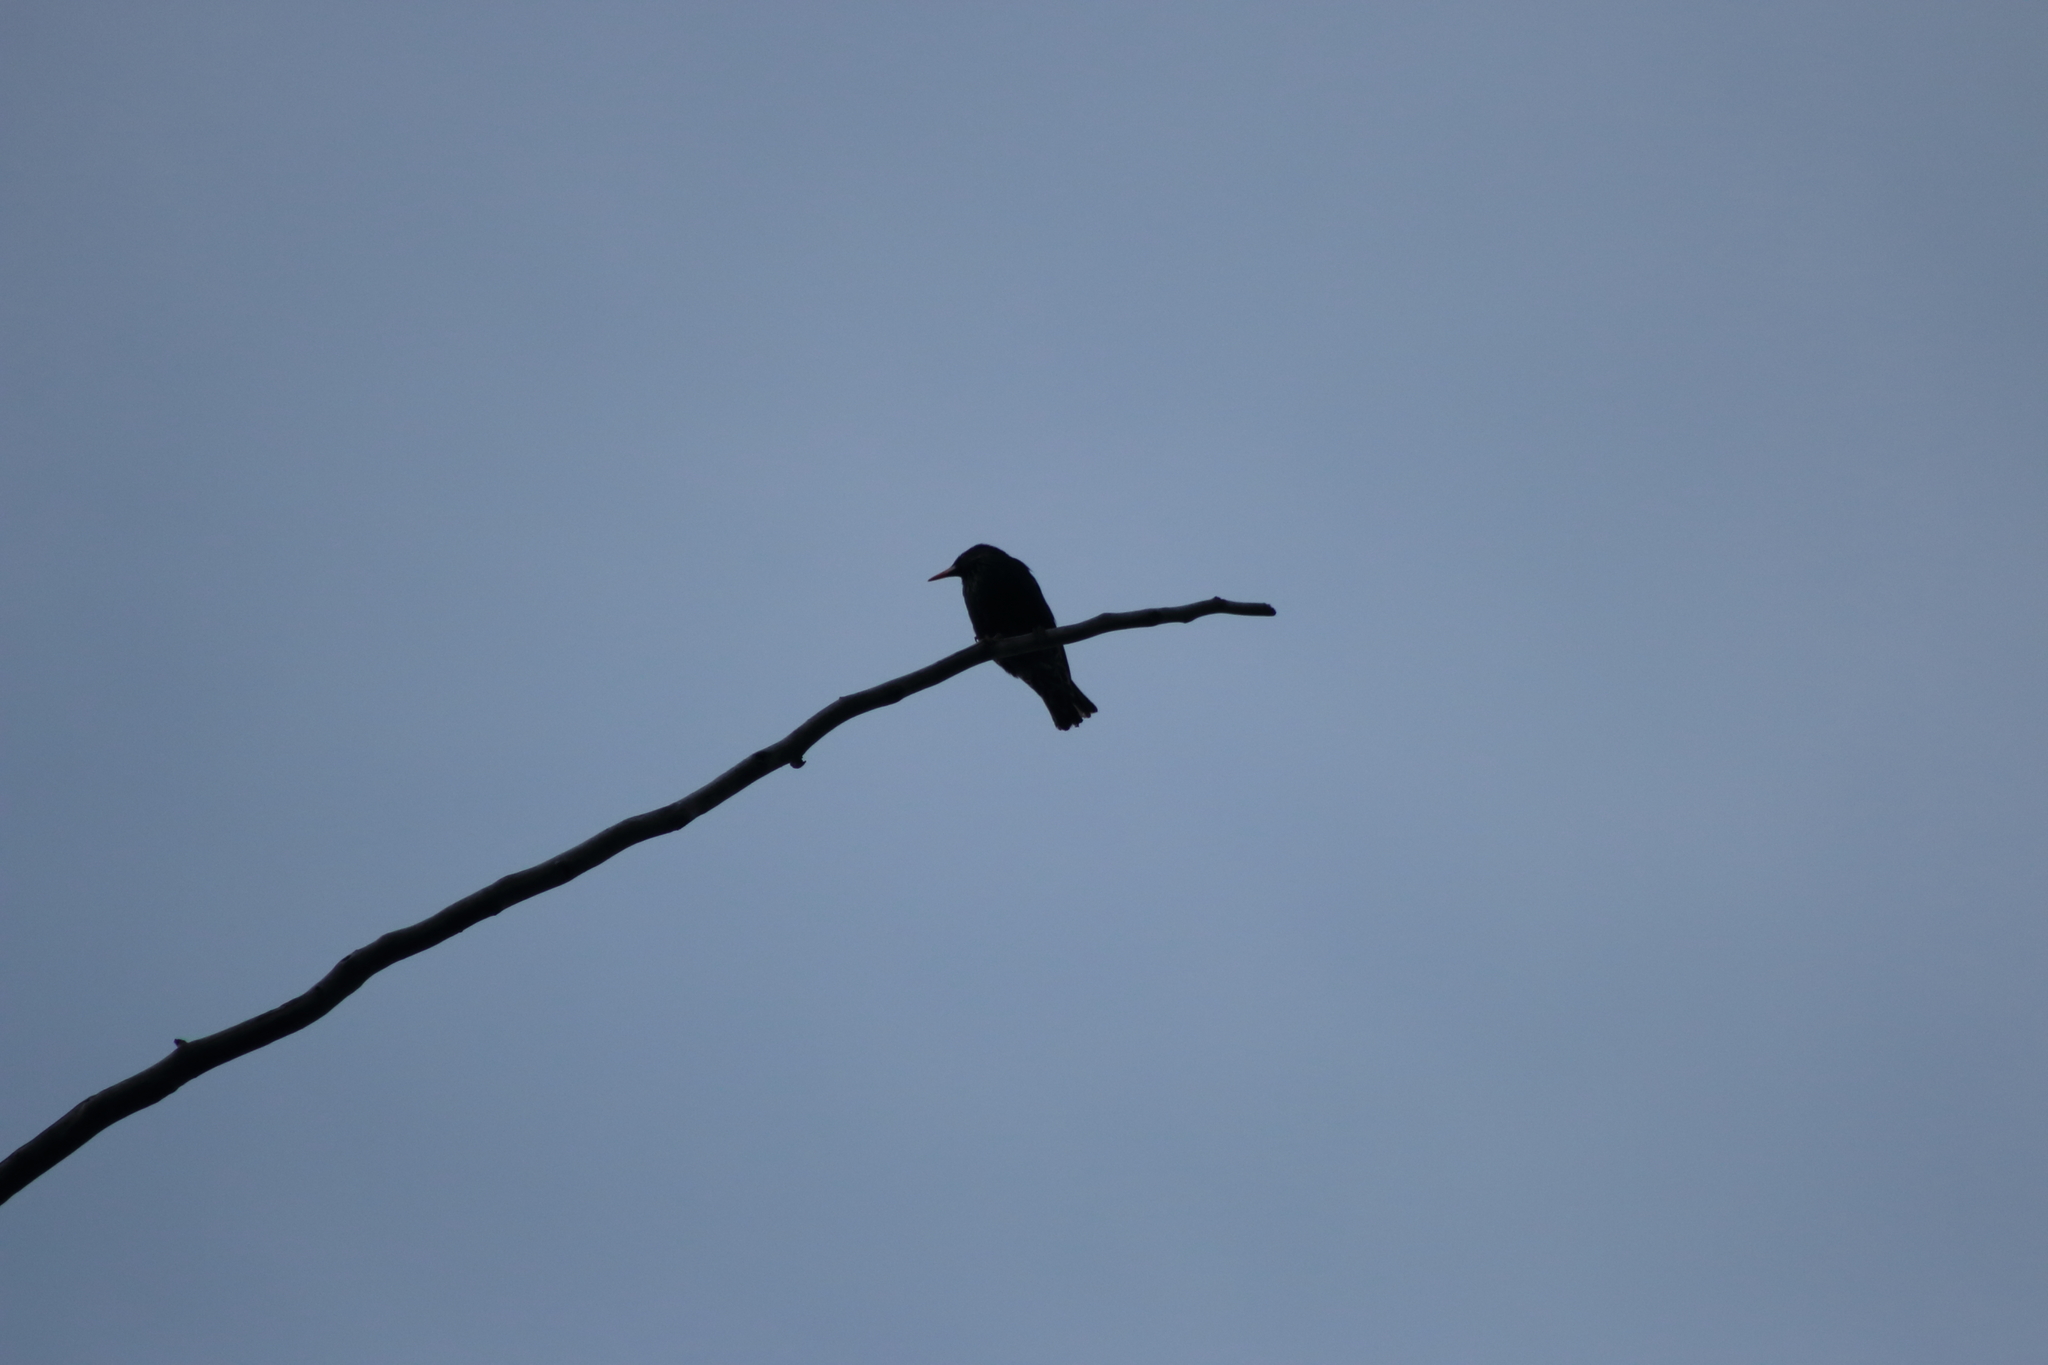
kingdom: Animalia
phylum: Chordata
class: Aves
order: Passeriformes
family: Sturnidae
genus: Sturnus
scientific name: Sturnus vulgaris
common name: Common starling
